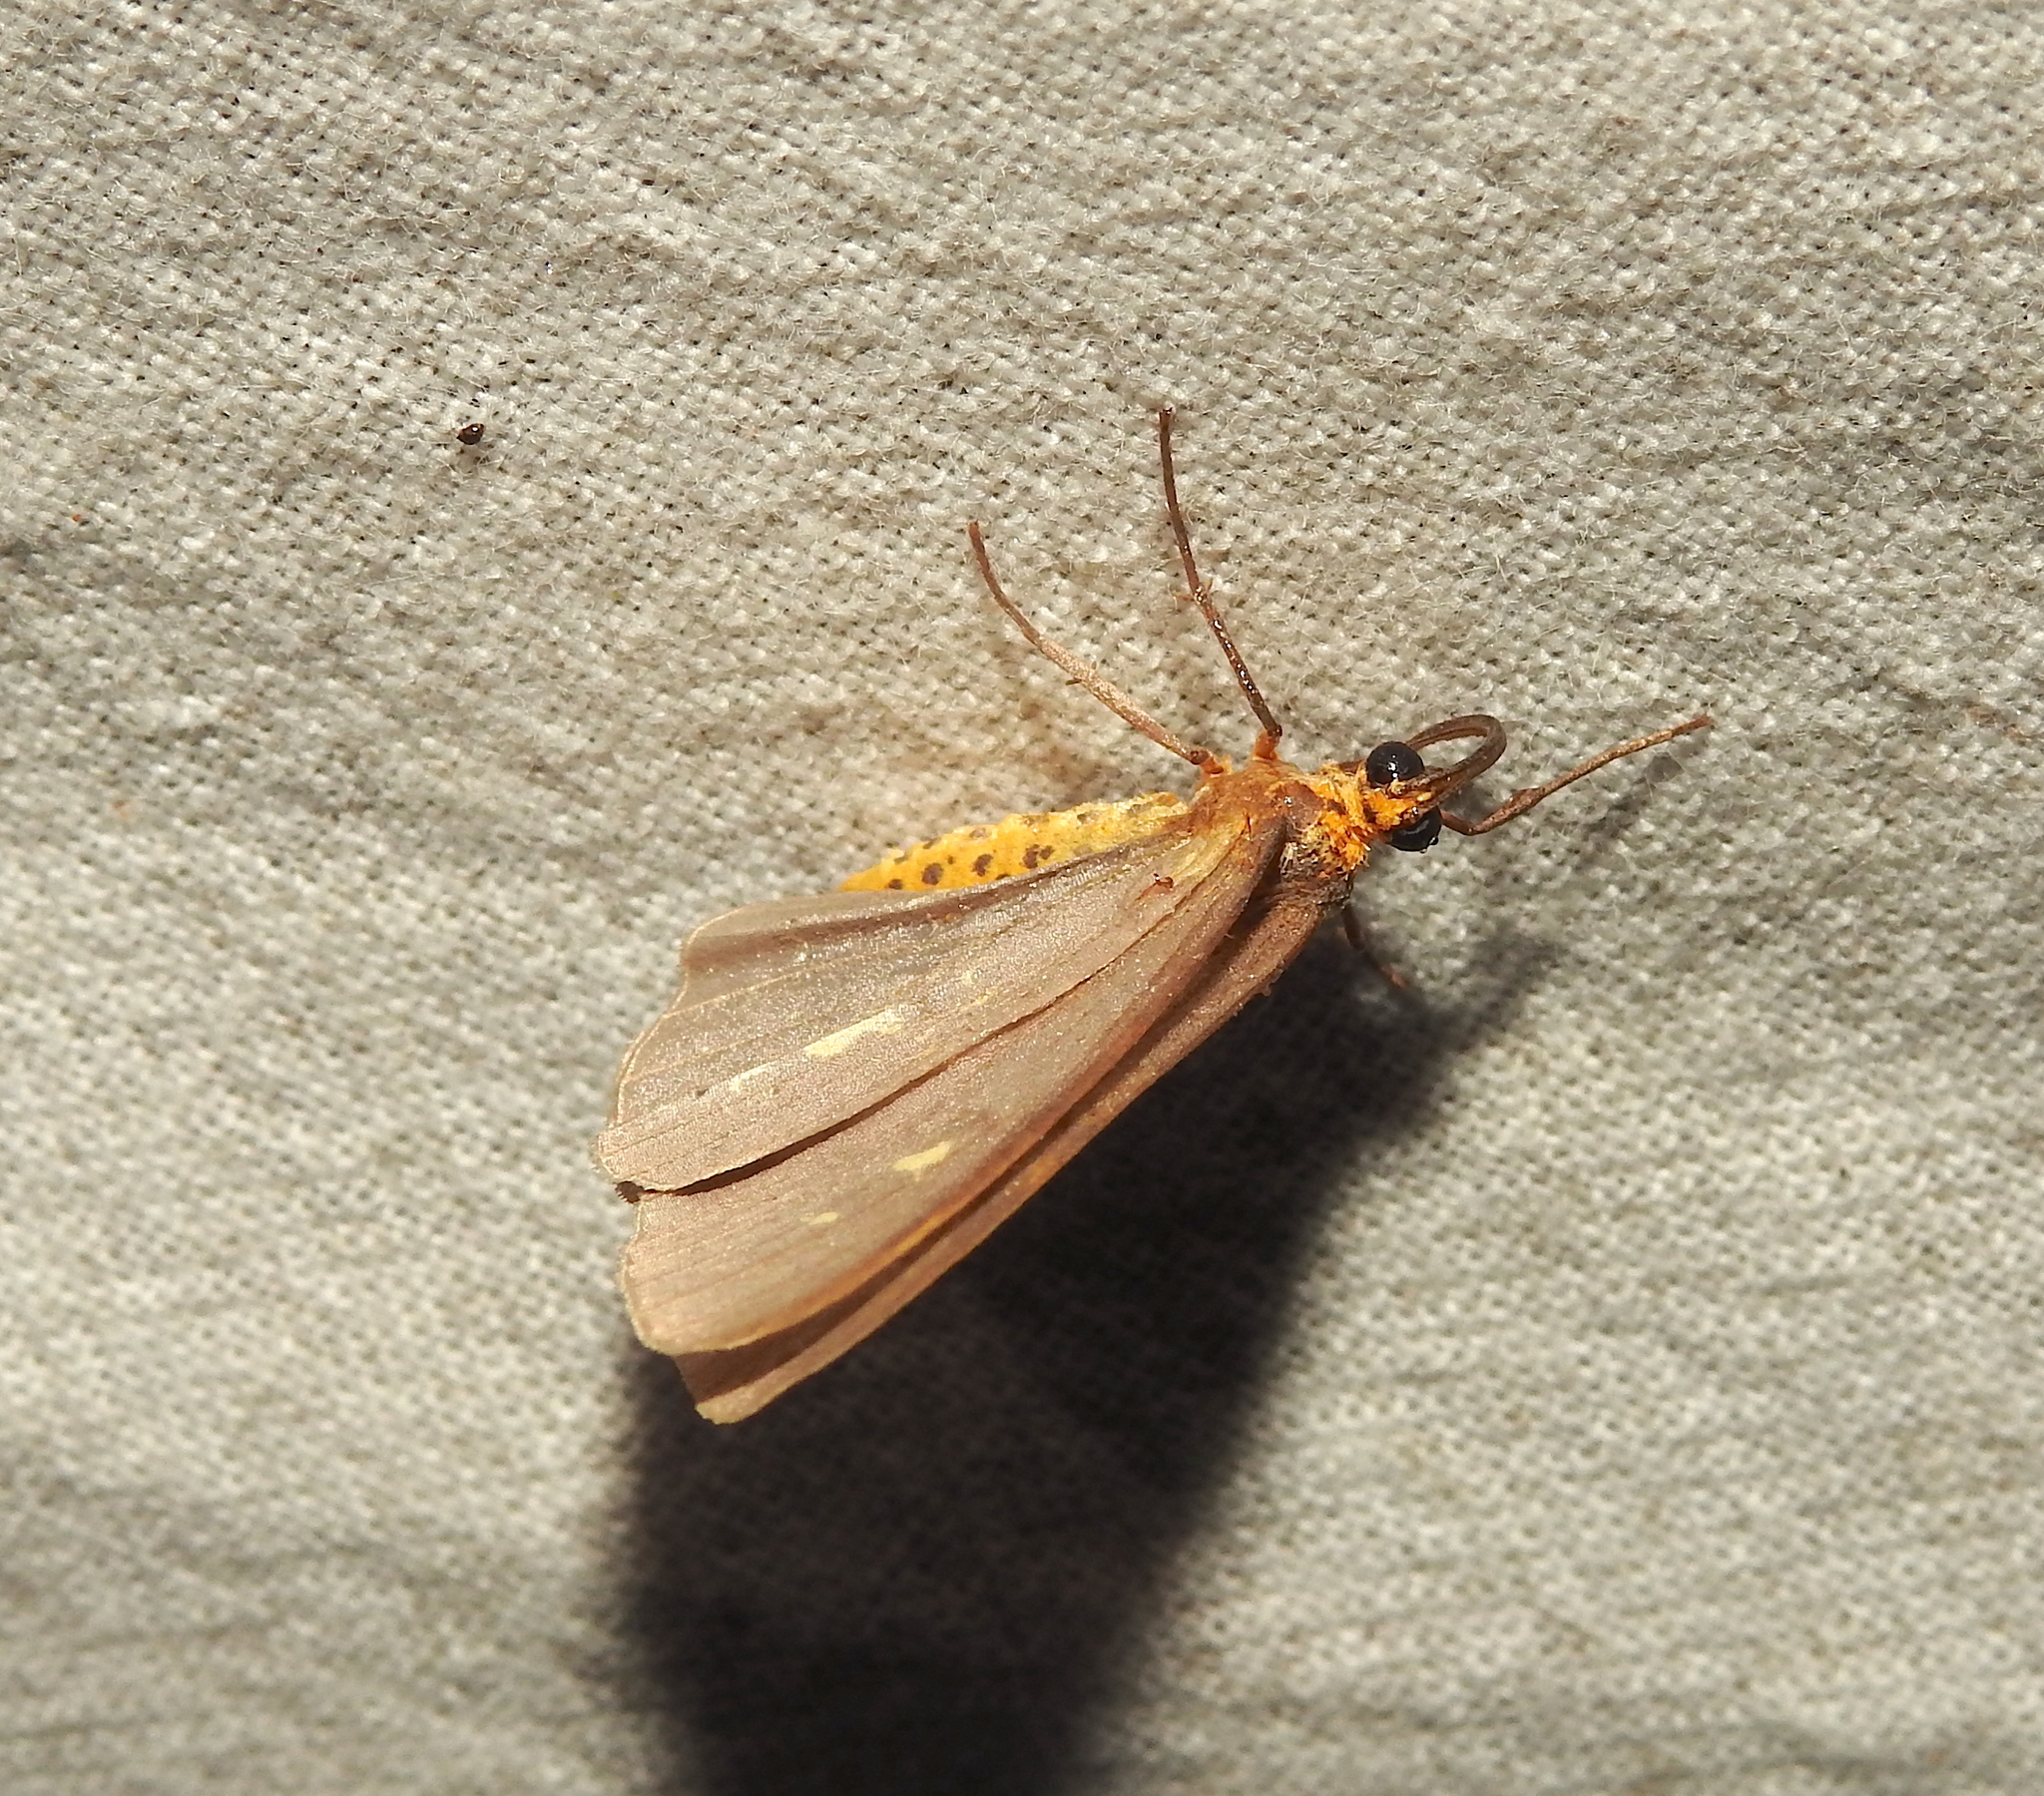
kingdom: Animalia
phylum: Arthropoda
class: Insecta
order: Lepidoptera
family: Geometridae
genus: Abraxas
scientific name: Abraxas poliaria
